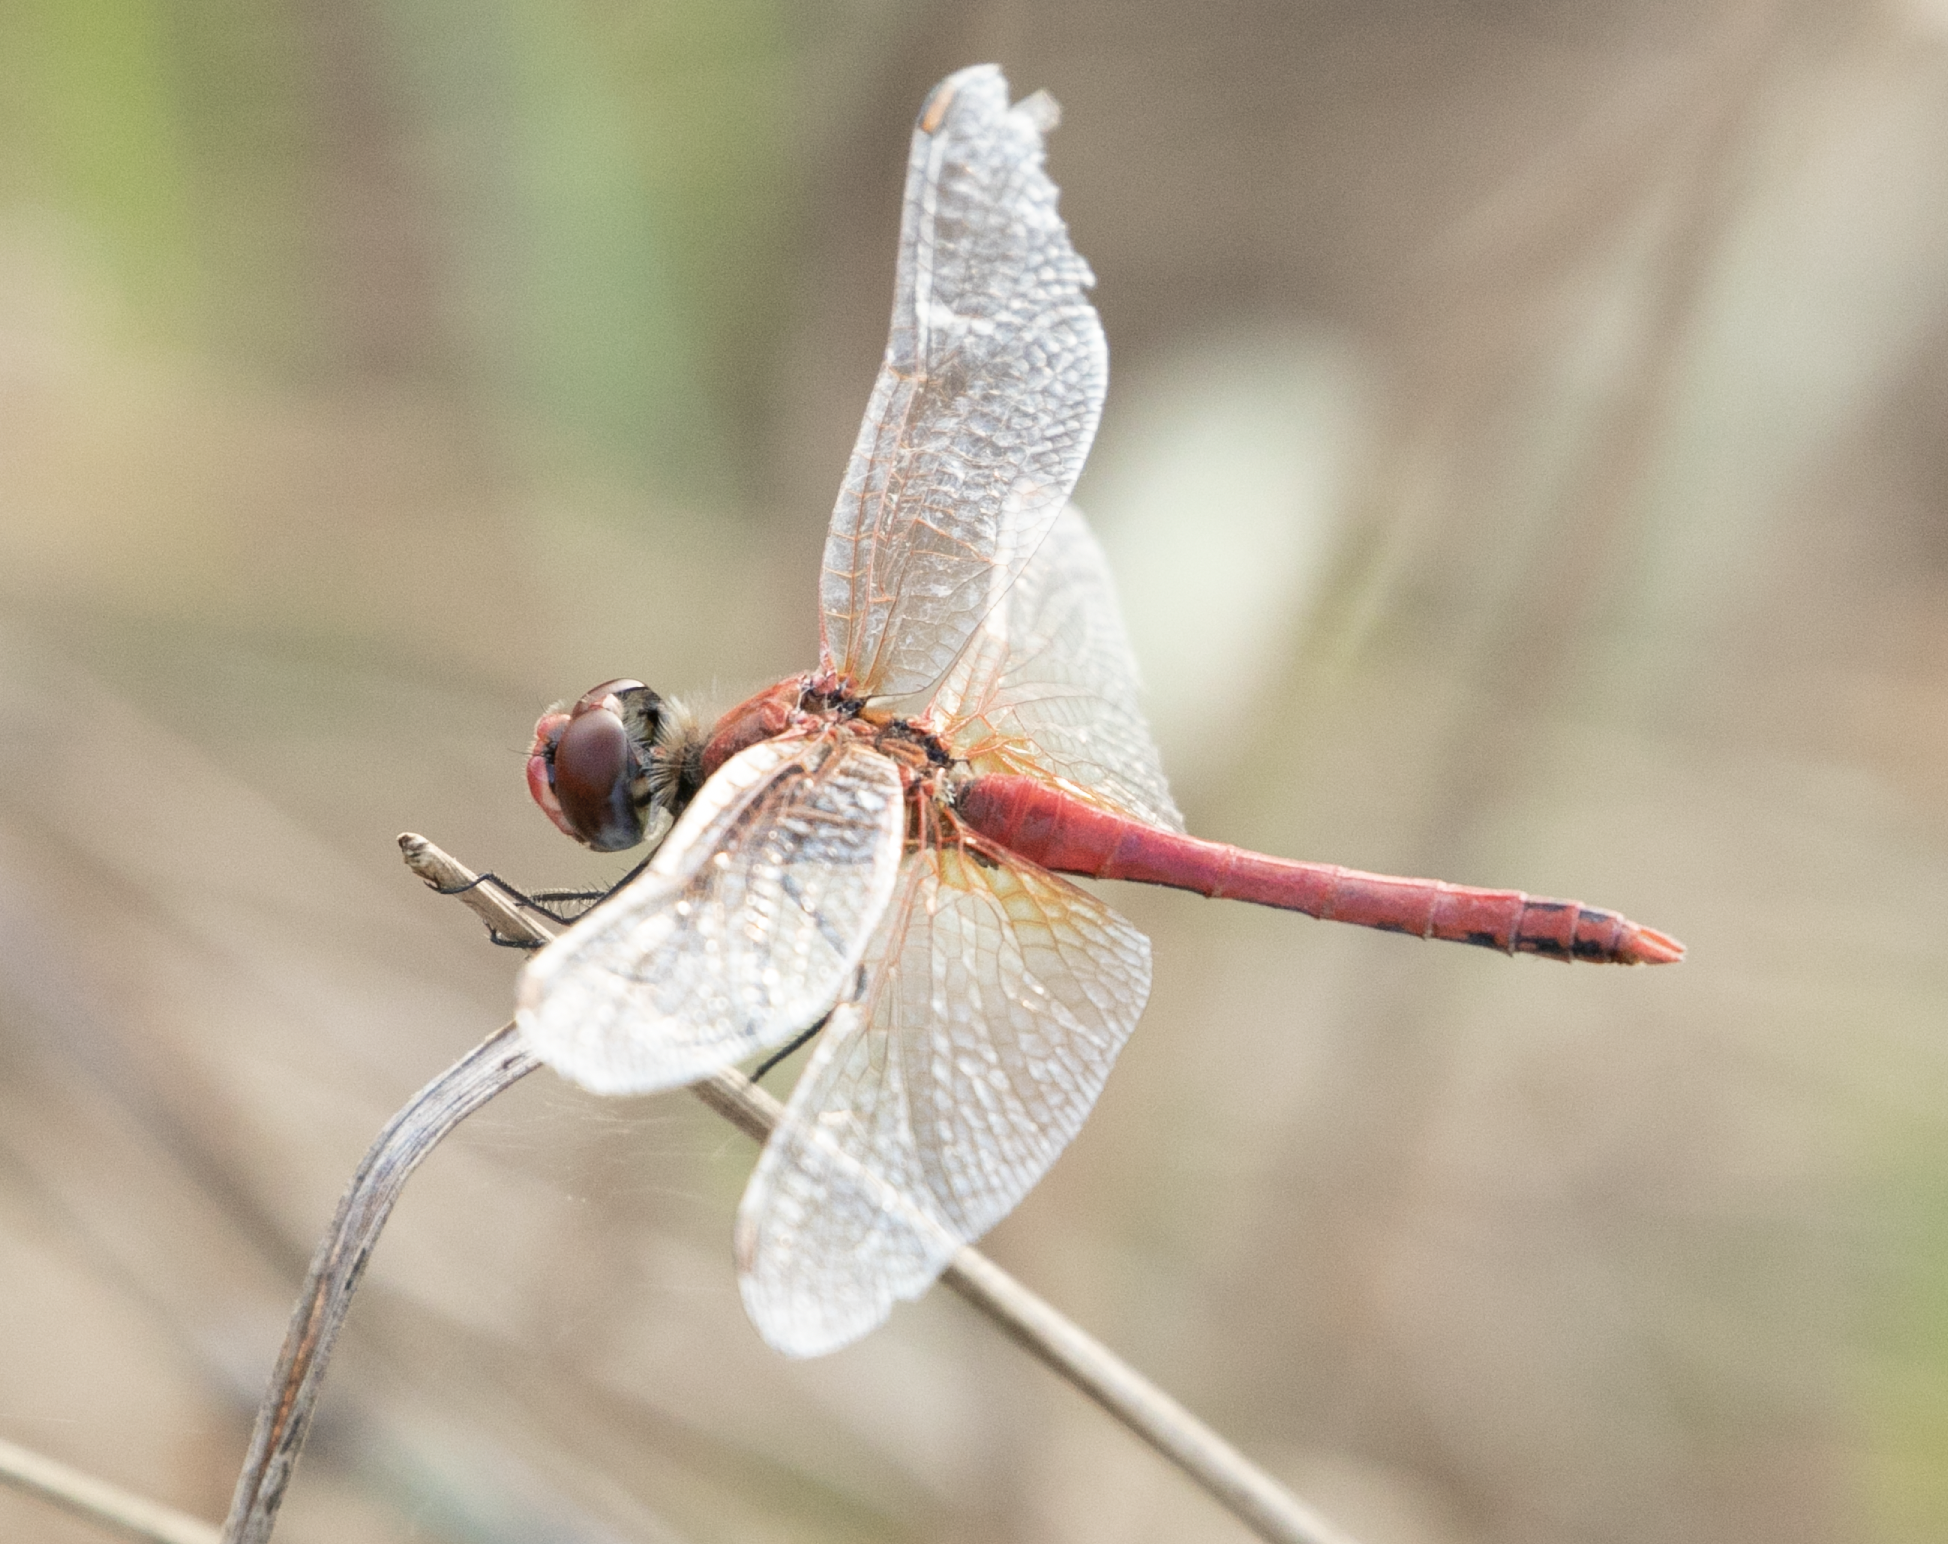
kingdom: Animalia
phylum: Arthropoda
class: Insecta
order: Odonata
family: Libellulidae
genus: Sympetrum
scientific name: Sympetrum fonscolombii
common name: Red-veined darter
